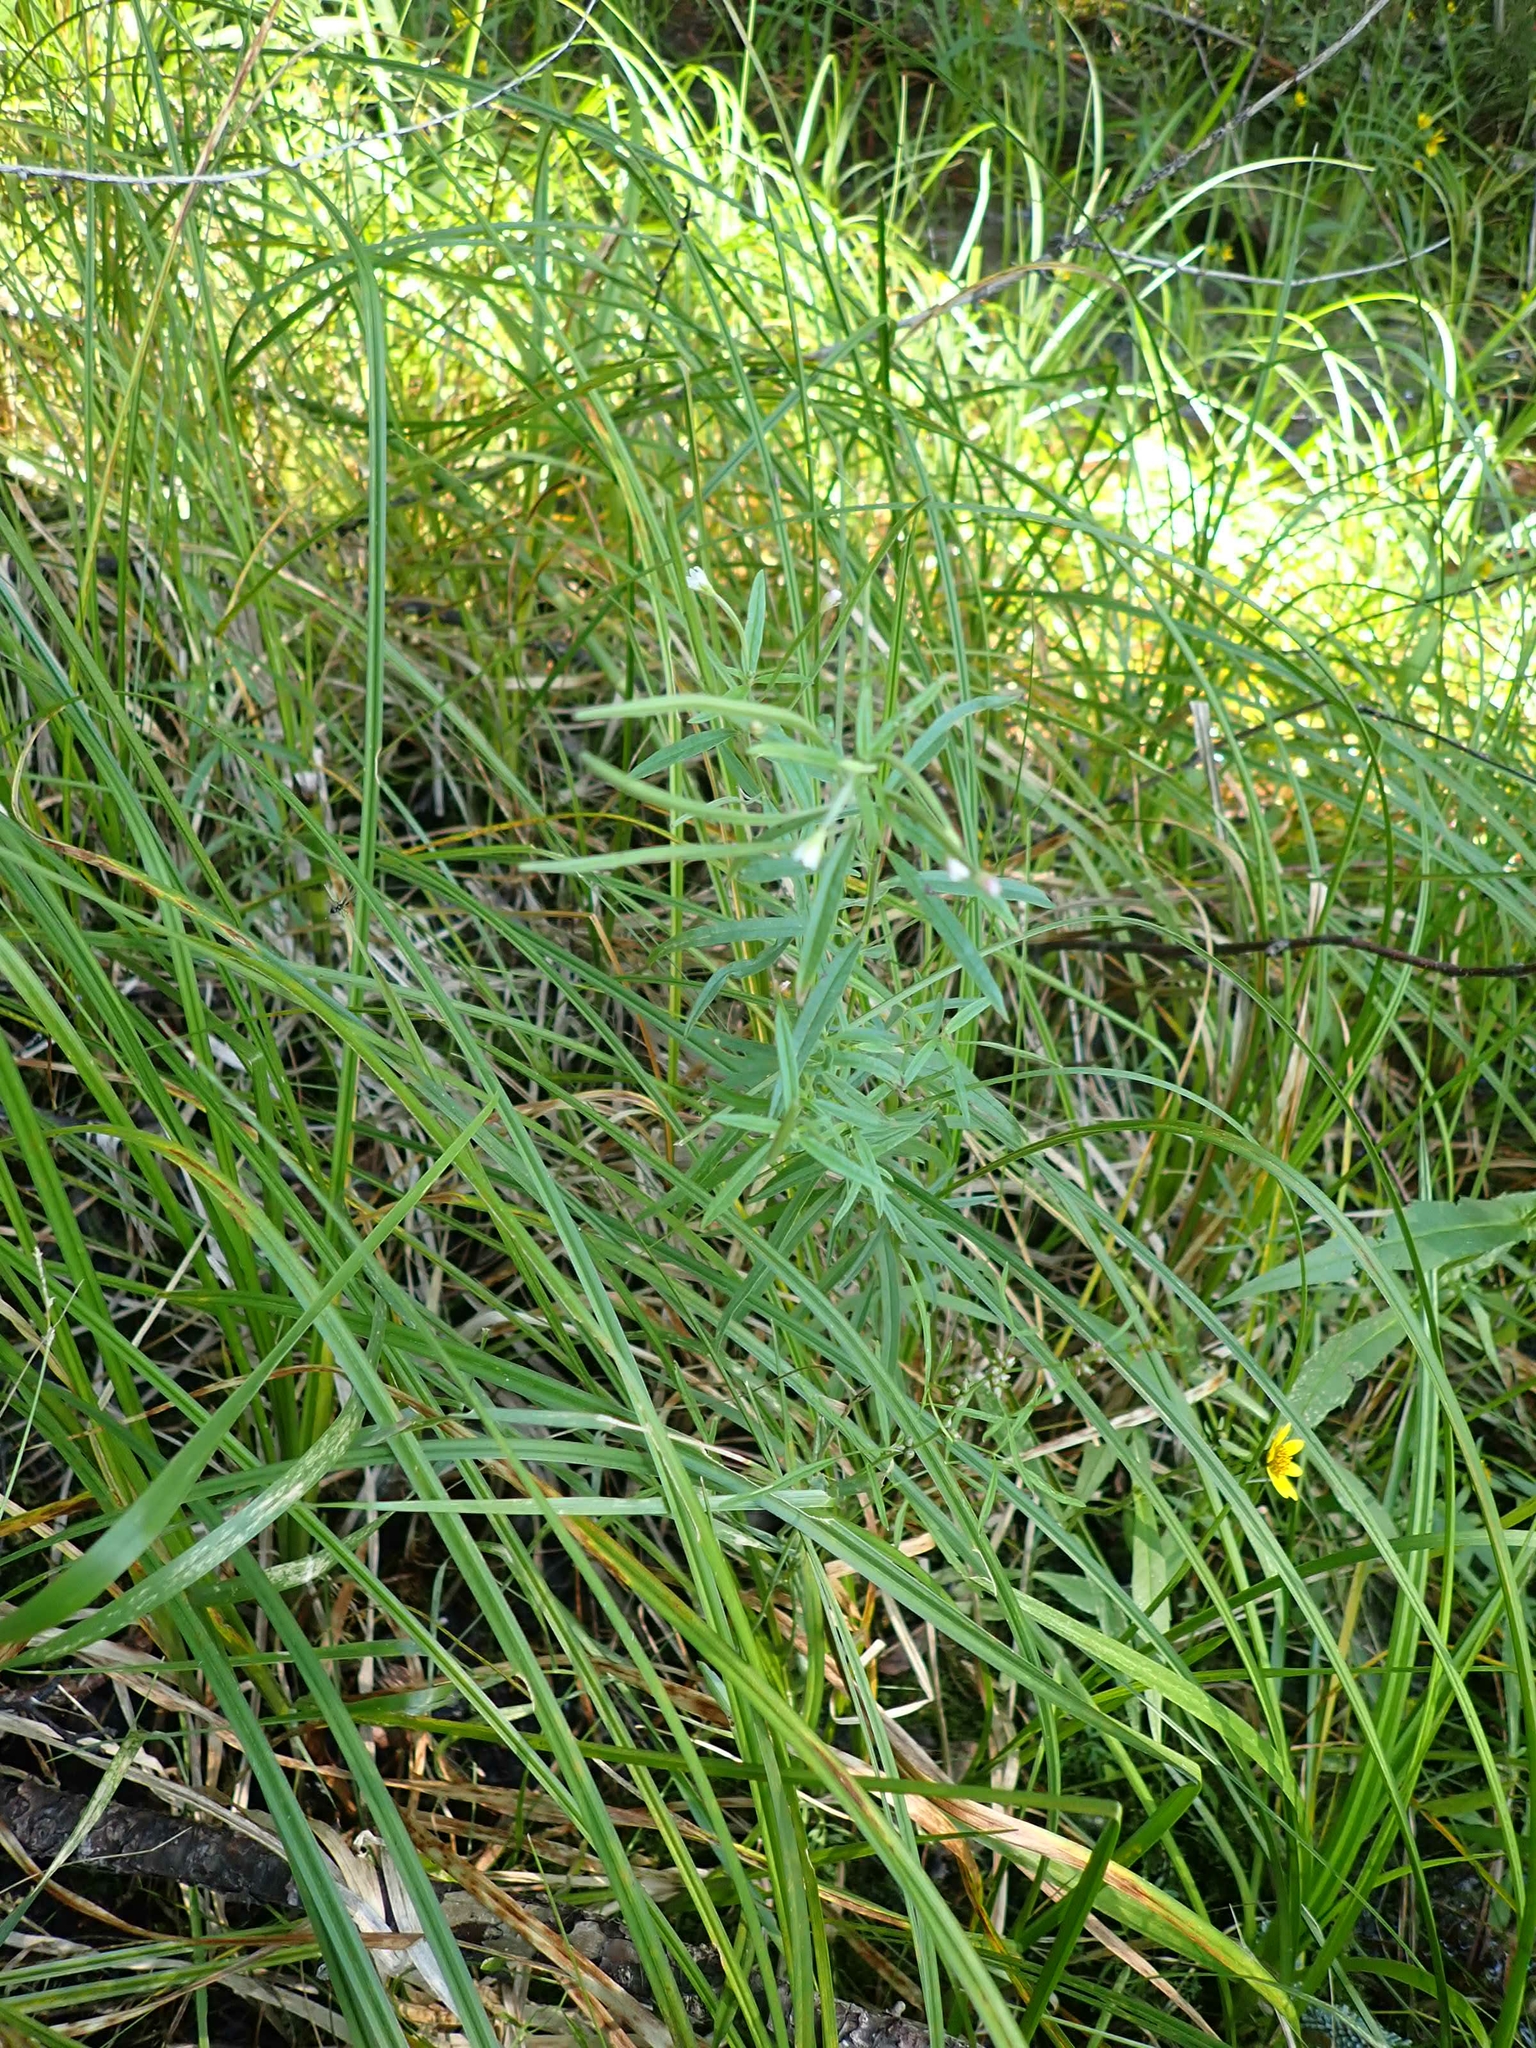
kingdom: Plantae
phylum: Tracheophyta
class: Magnoliopsida
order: Myrtales
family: Onagraceae
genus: Epilobium
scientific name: Epilobium leptophyllum
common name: Bog willowherb
